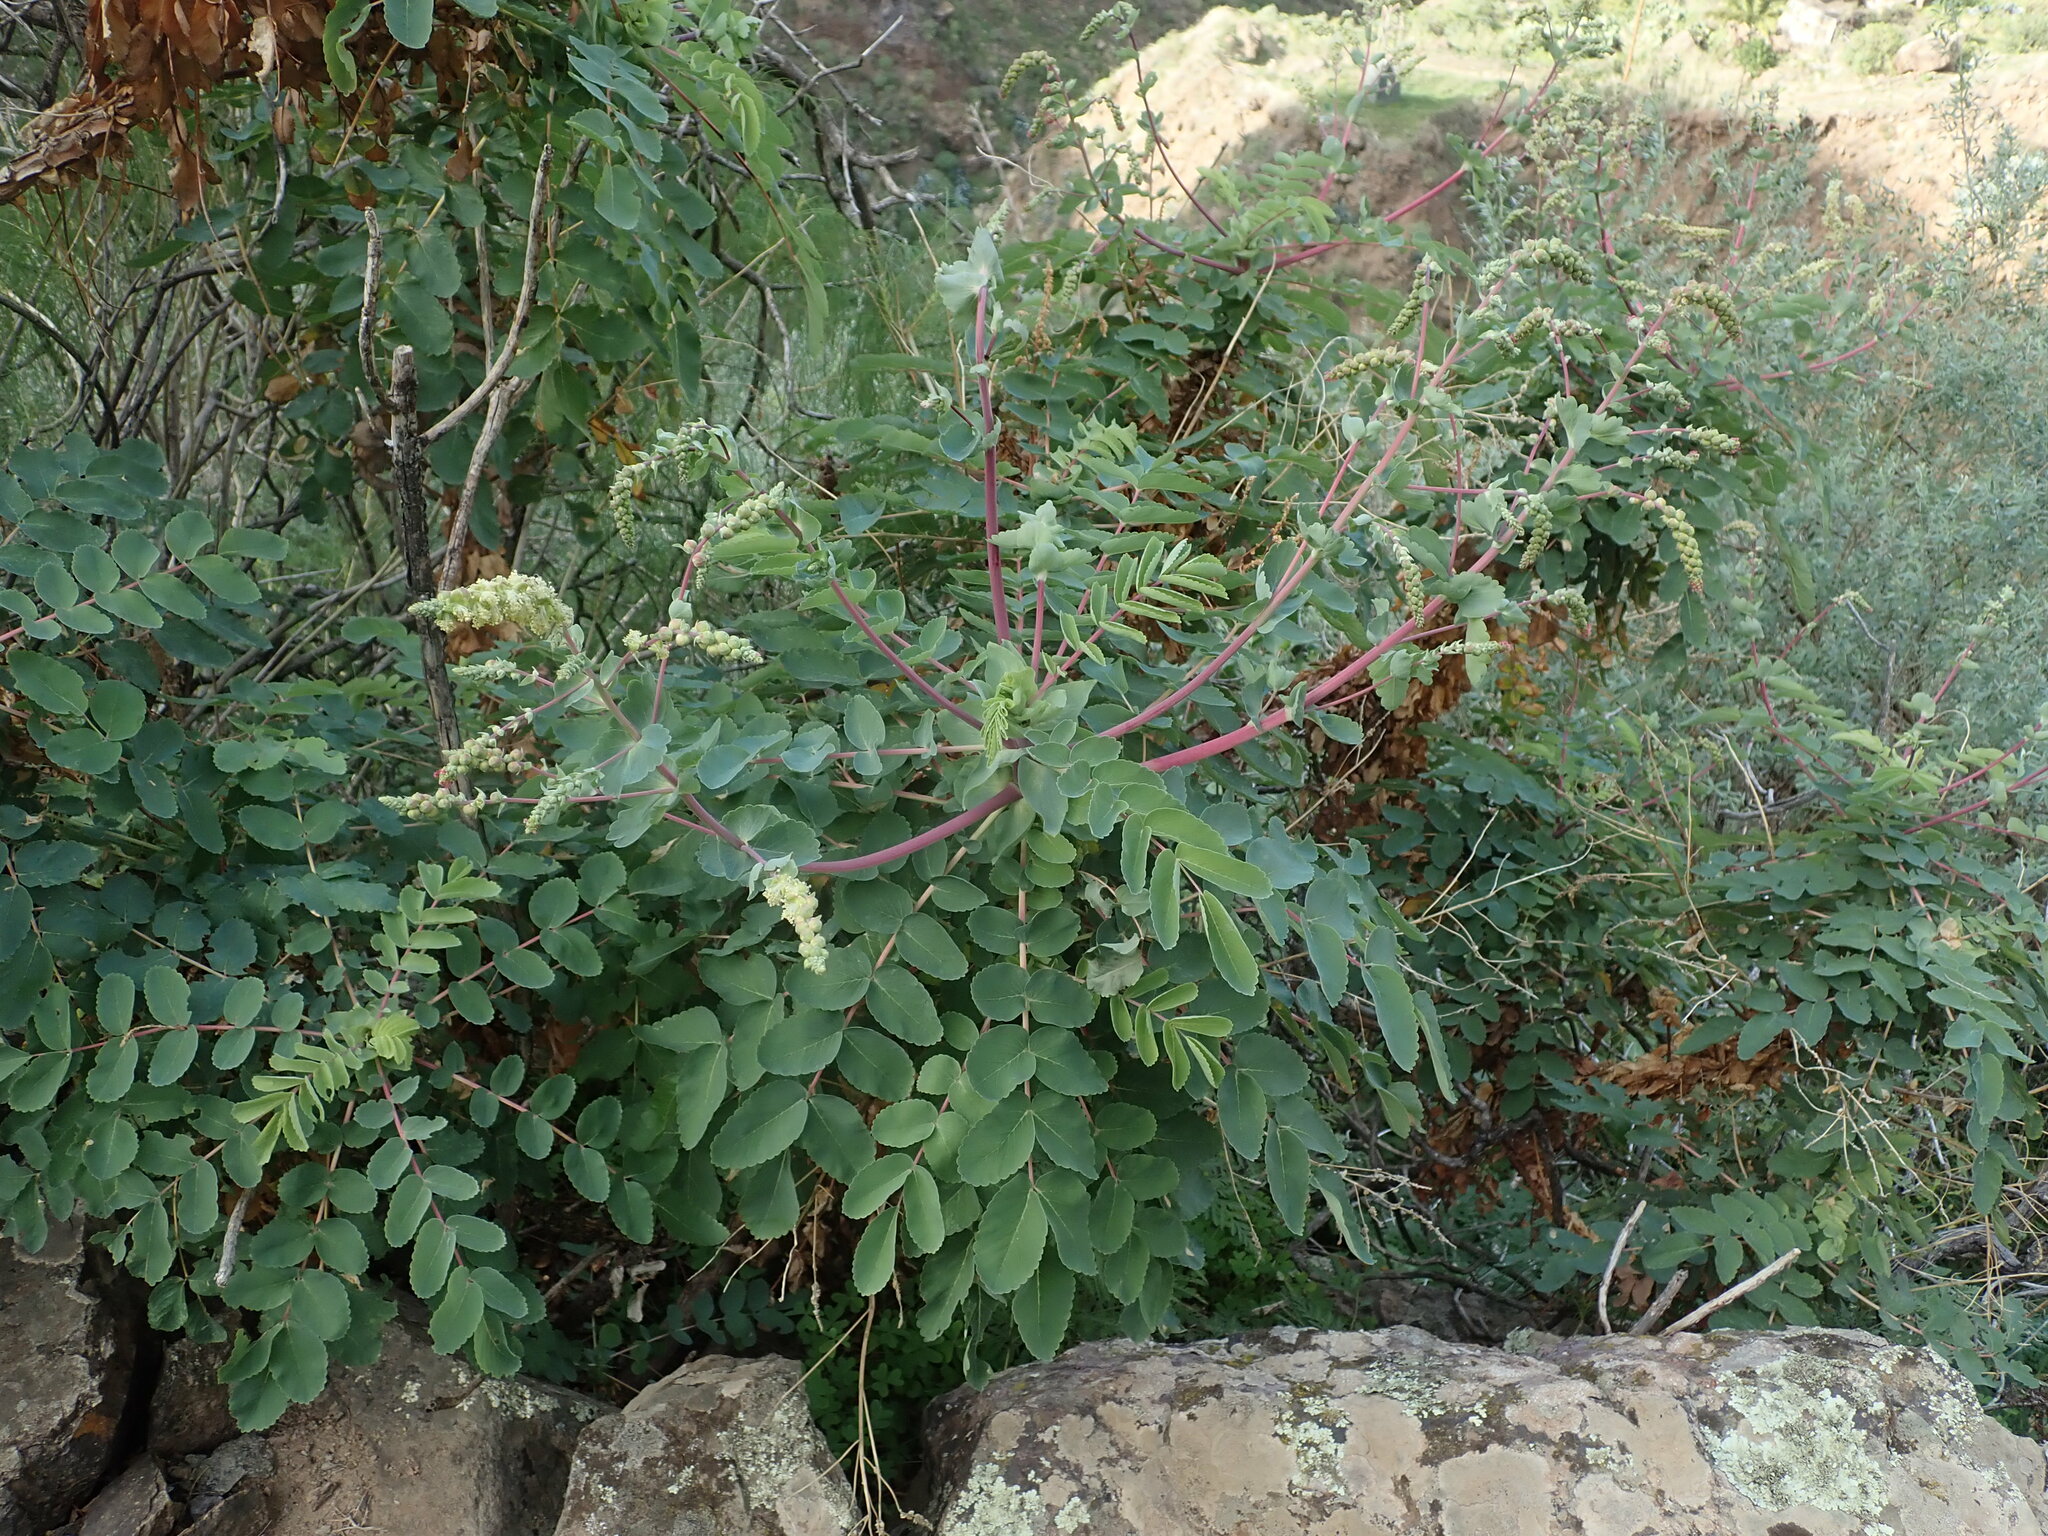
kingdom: Plantae
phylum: Tracheophyta
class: Magnoliopsida
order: Rosales
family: Rosaceae
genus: Marcetella
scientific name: Marcetella moquiniana
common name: Burnet tree
